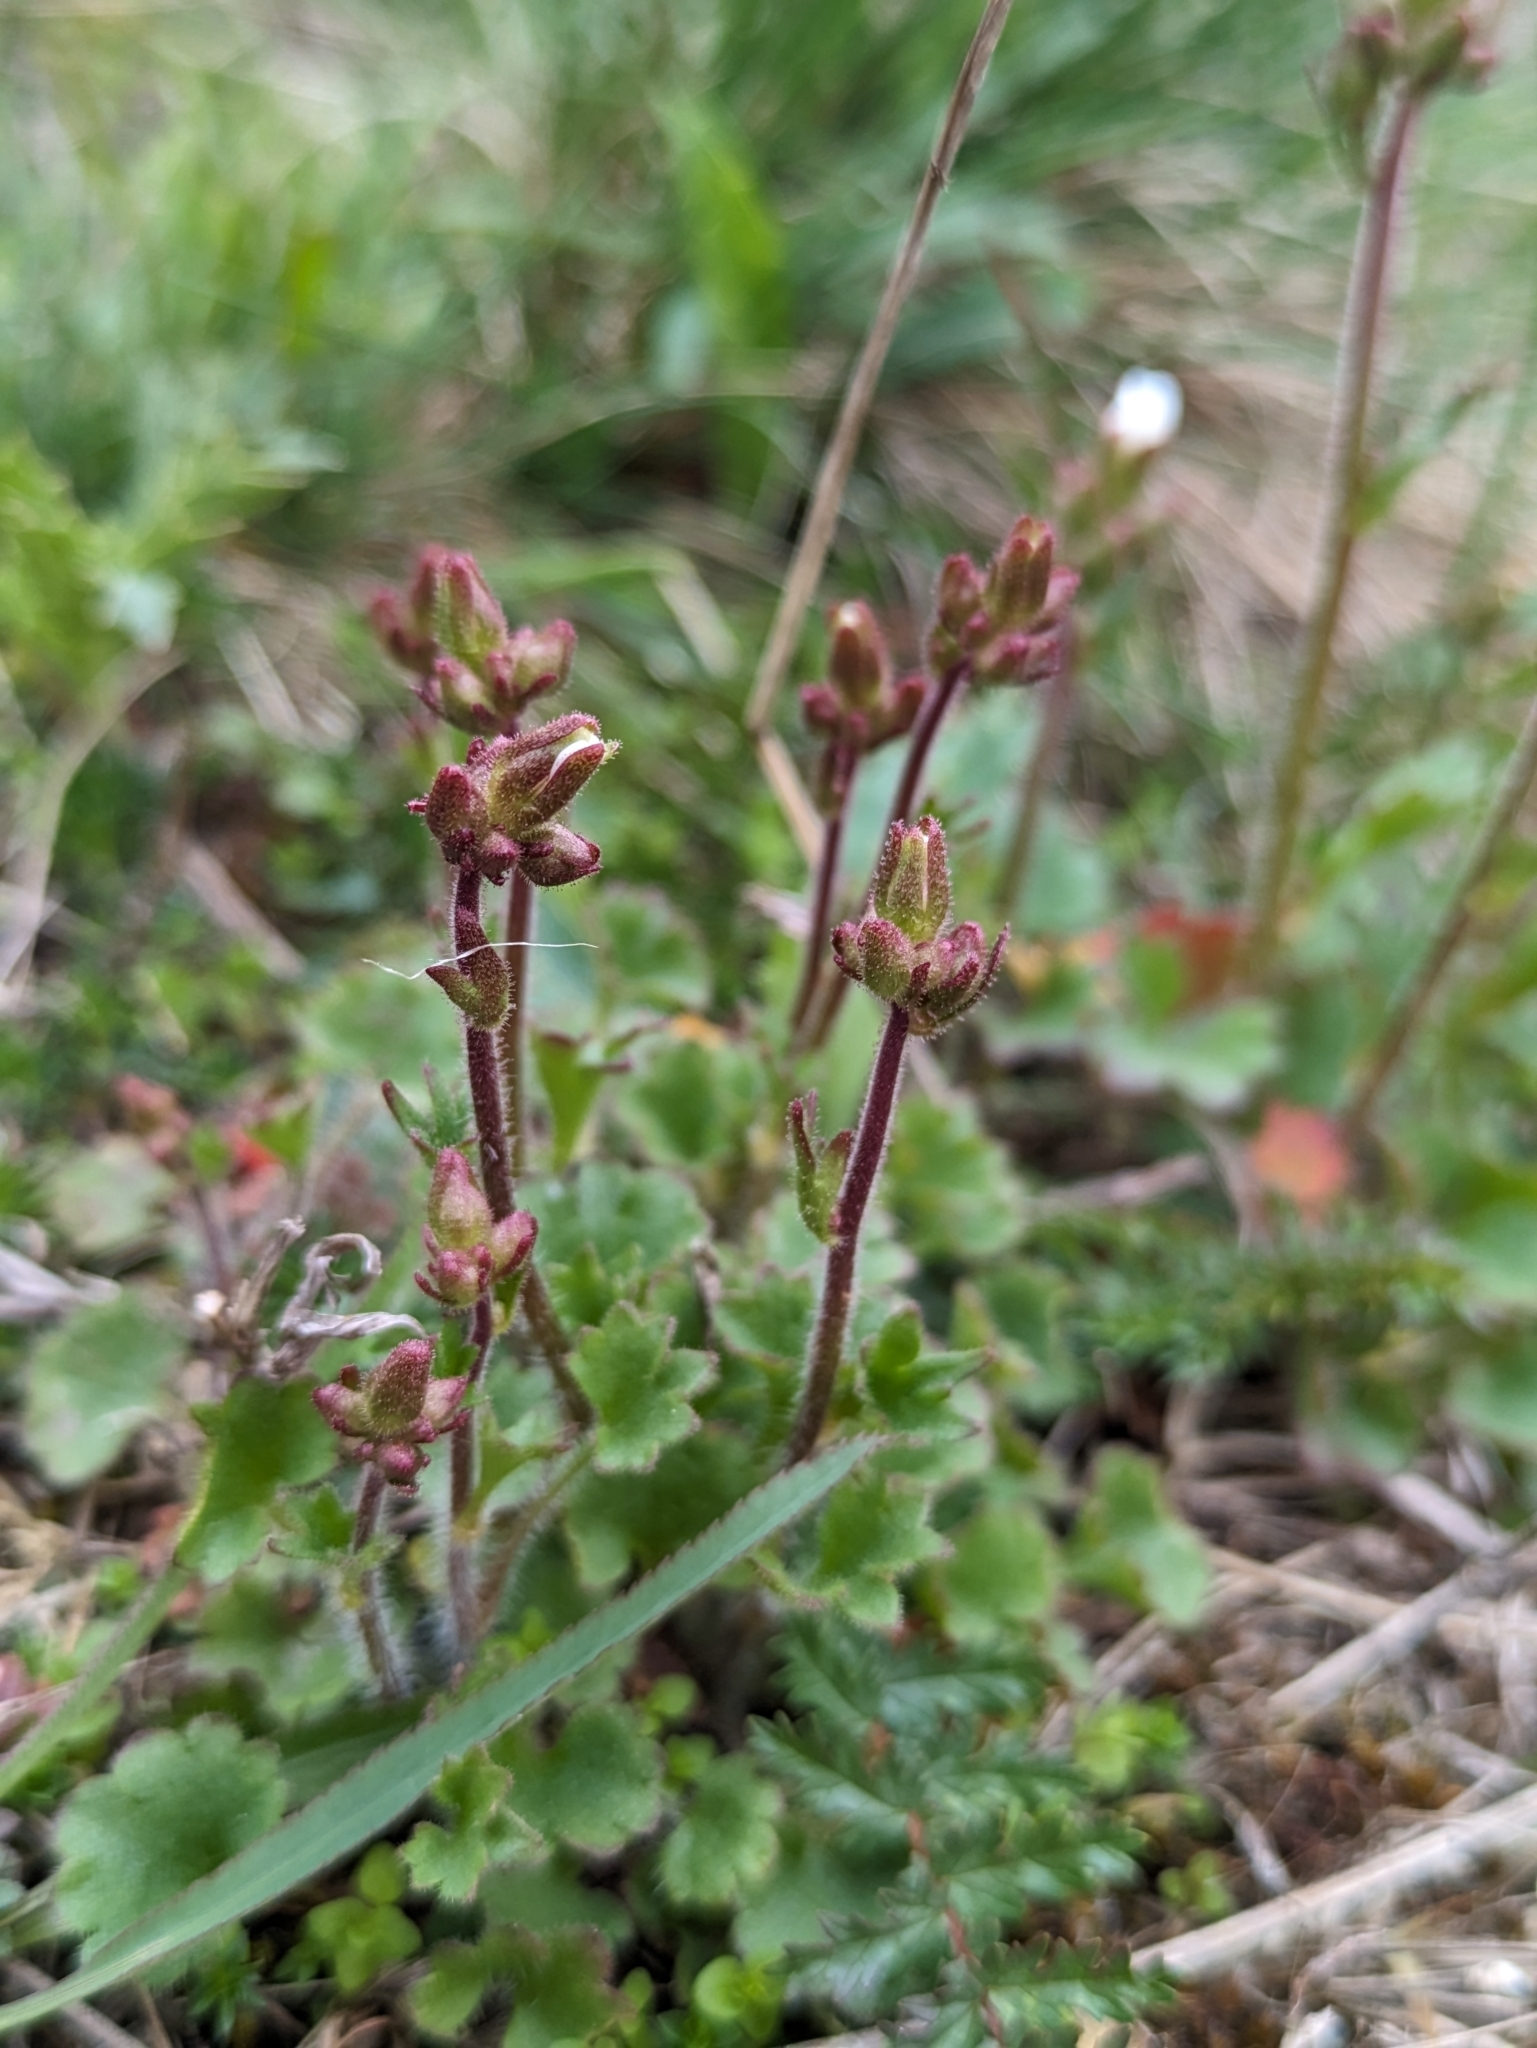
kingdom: Plantae
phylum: Tracheophyta
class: Magnoliopsida
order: Saxifragales
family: Saxifragaceae
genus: Saxifraga
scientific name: Saxifraga granulata
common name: Meadow saxifrage
